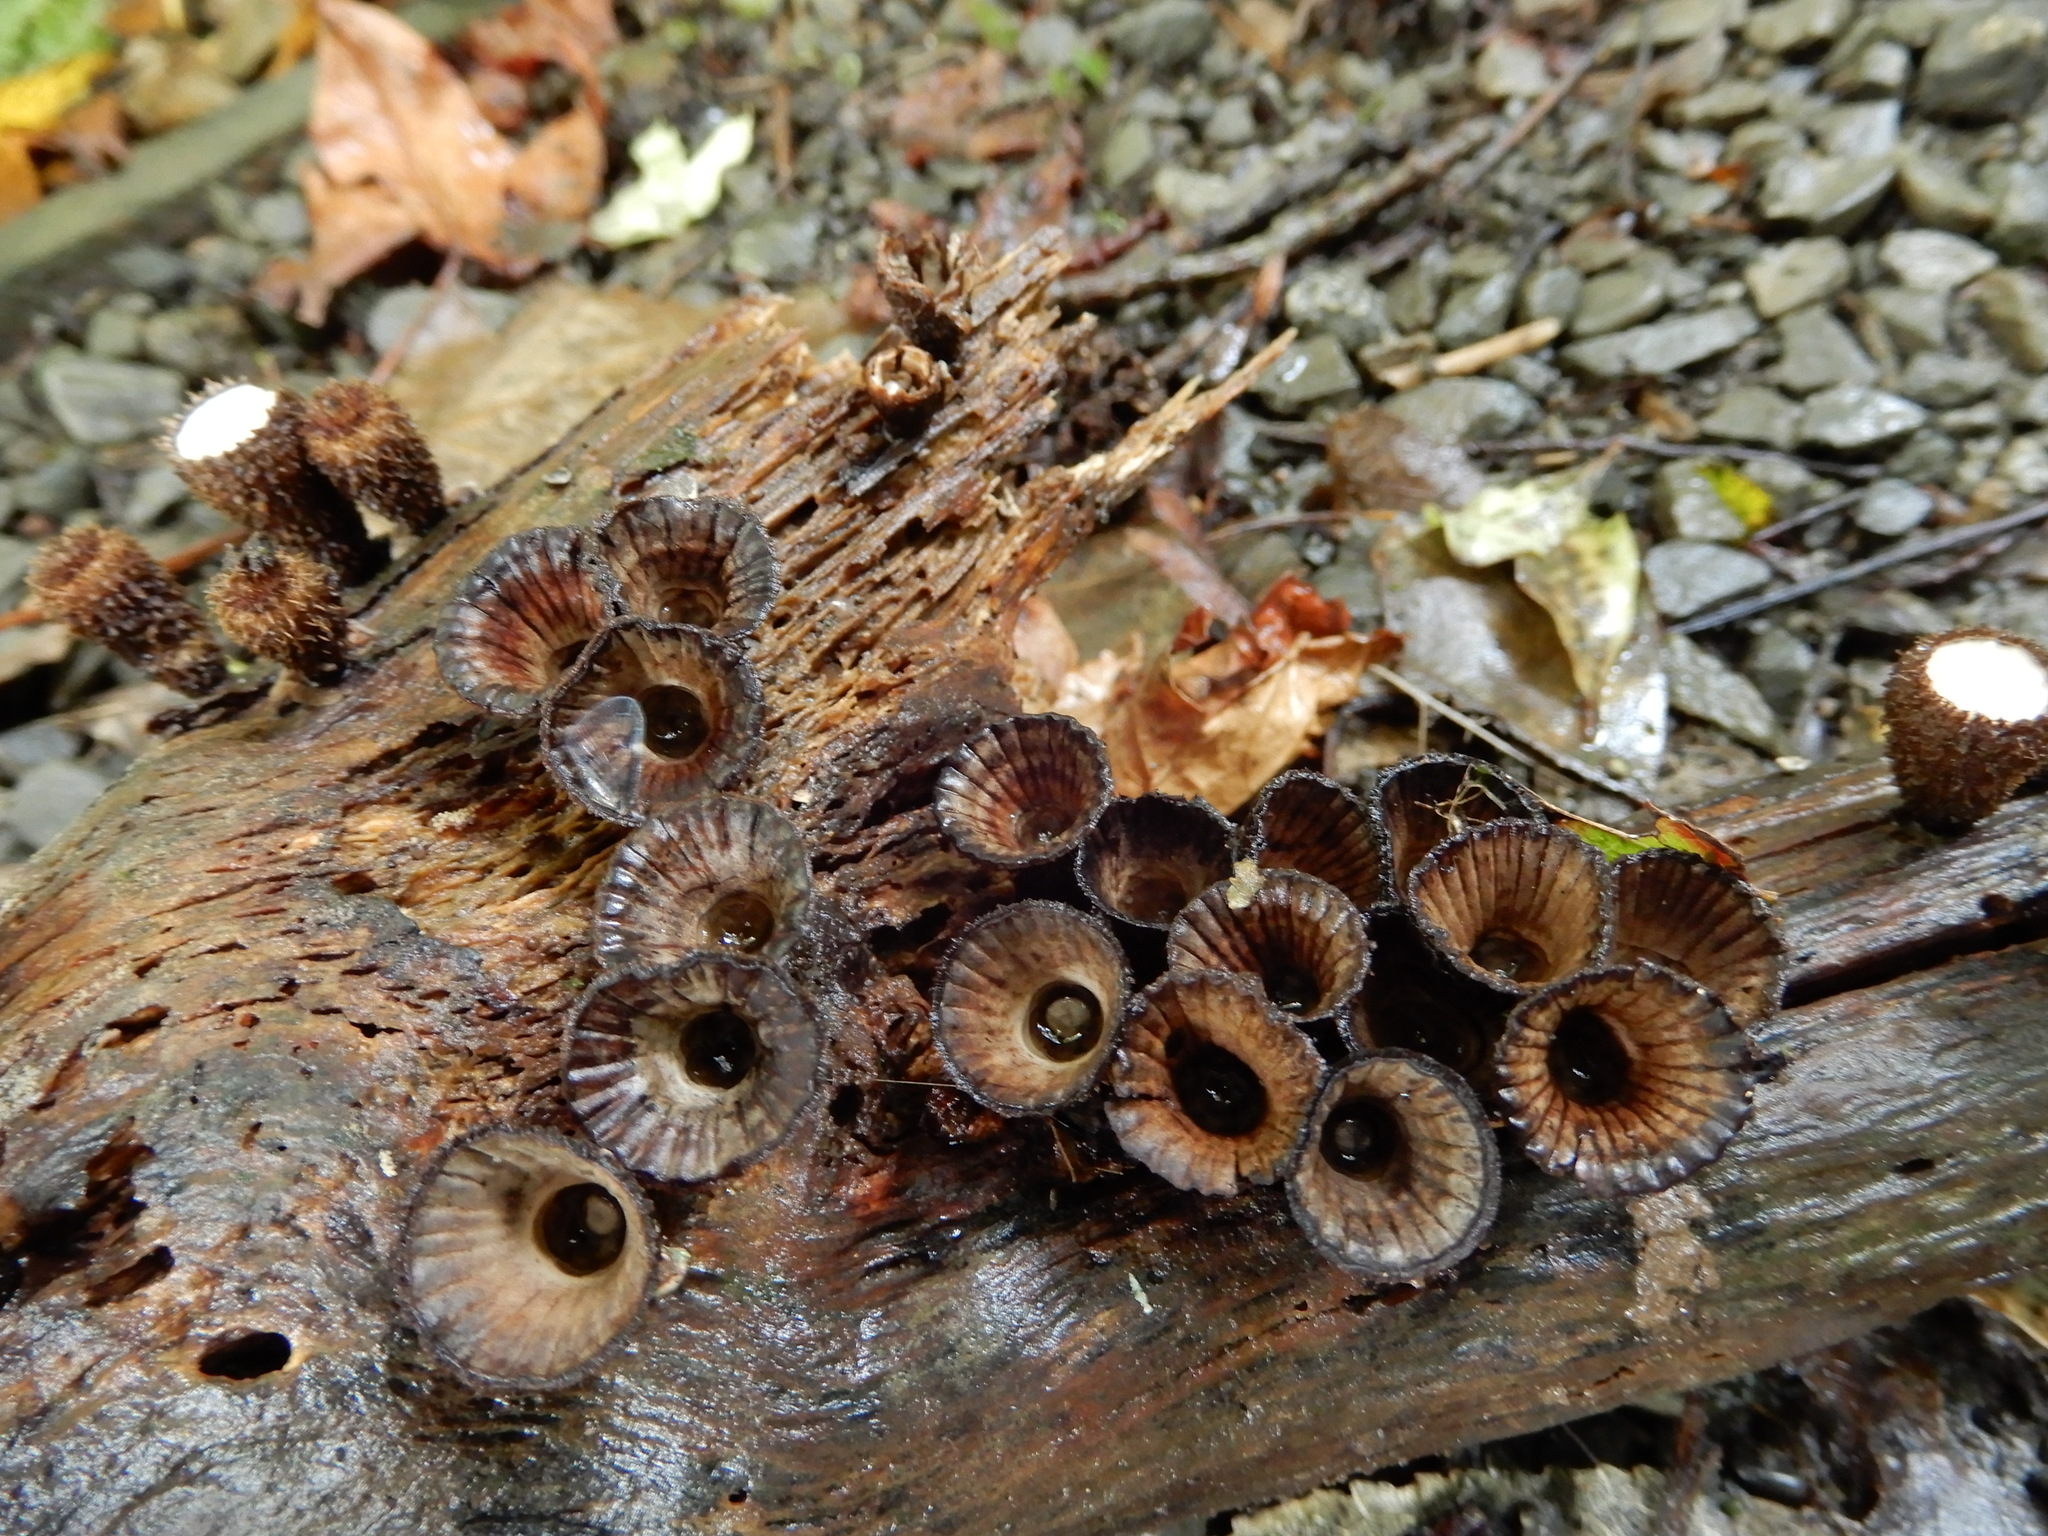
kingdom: Fungi
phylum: Basidiomycota
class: Agaricomycetes
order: Agaricales
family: Agaricaceae
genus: Cyathus
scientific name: Cyathus striatus
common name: Fluted bird's nest
